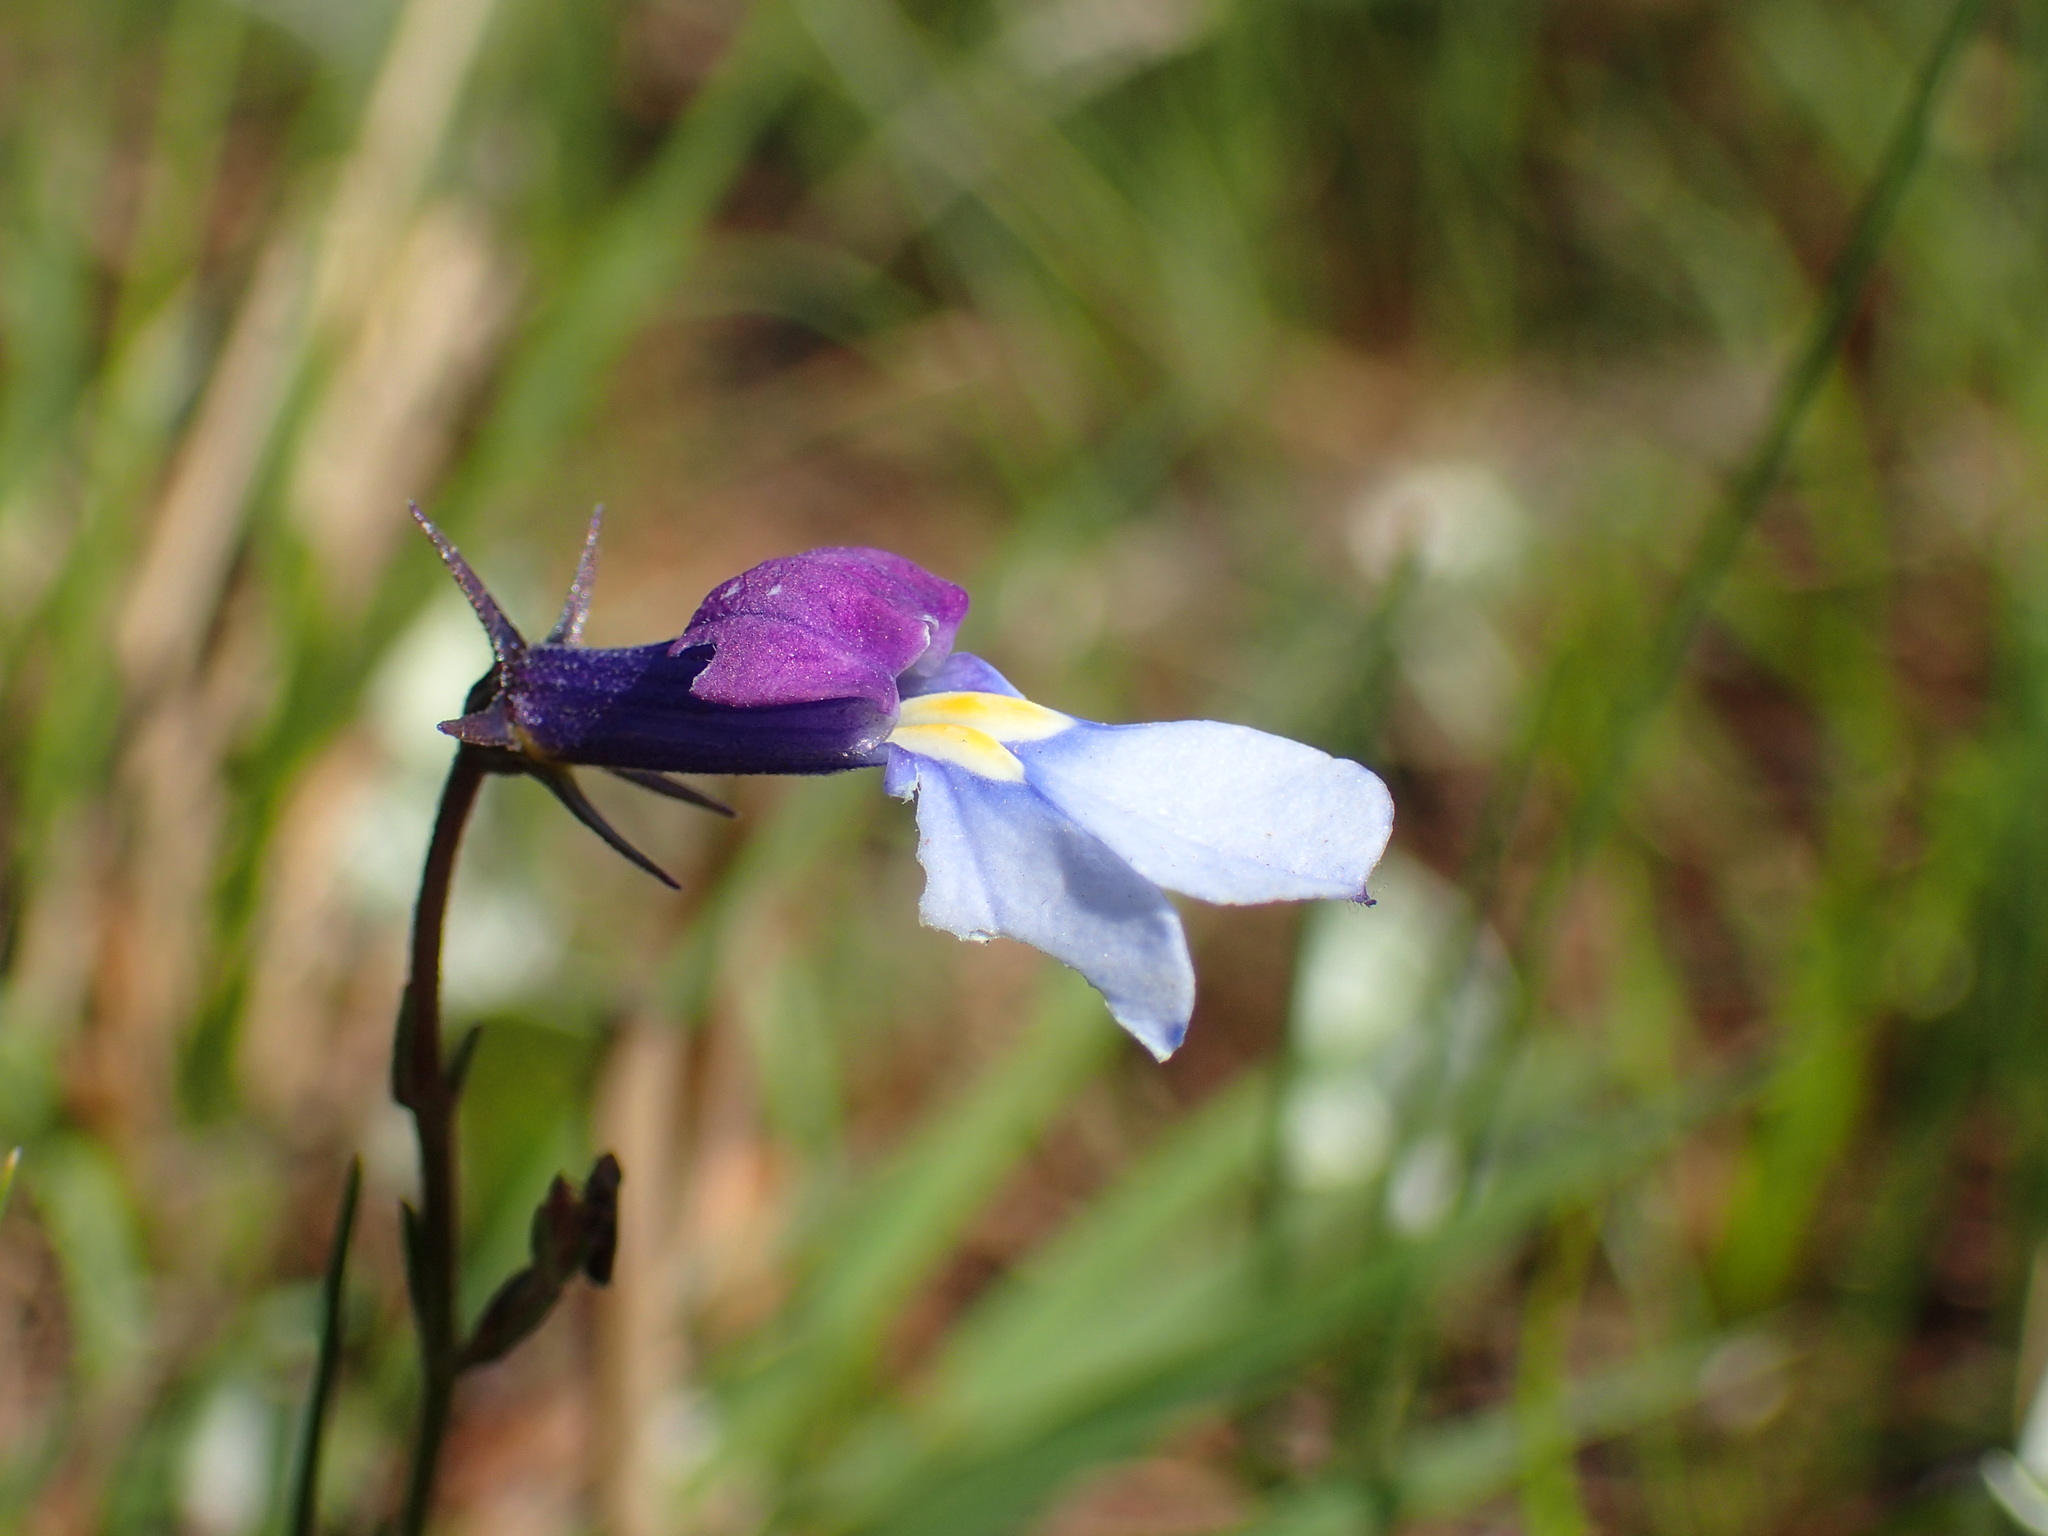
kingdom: Plantae
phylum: Tracheophyta
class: Magnoliopsida
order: Asterales
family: Campanulaceae
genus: Monopsis
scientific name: Monopsis decipiens
